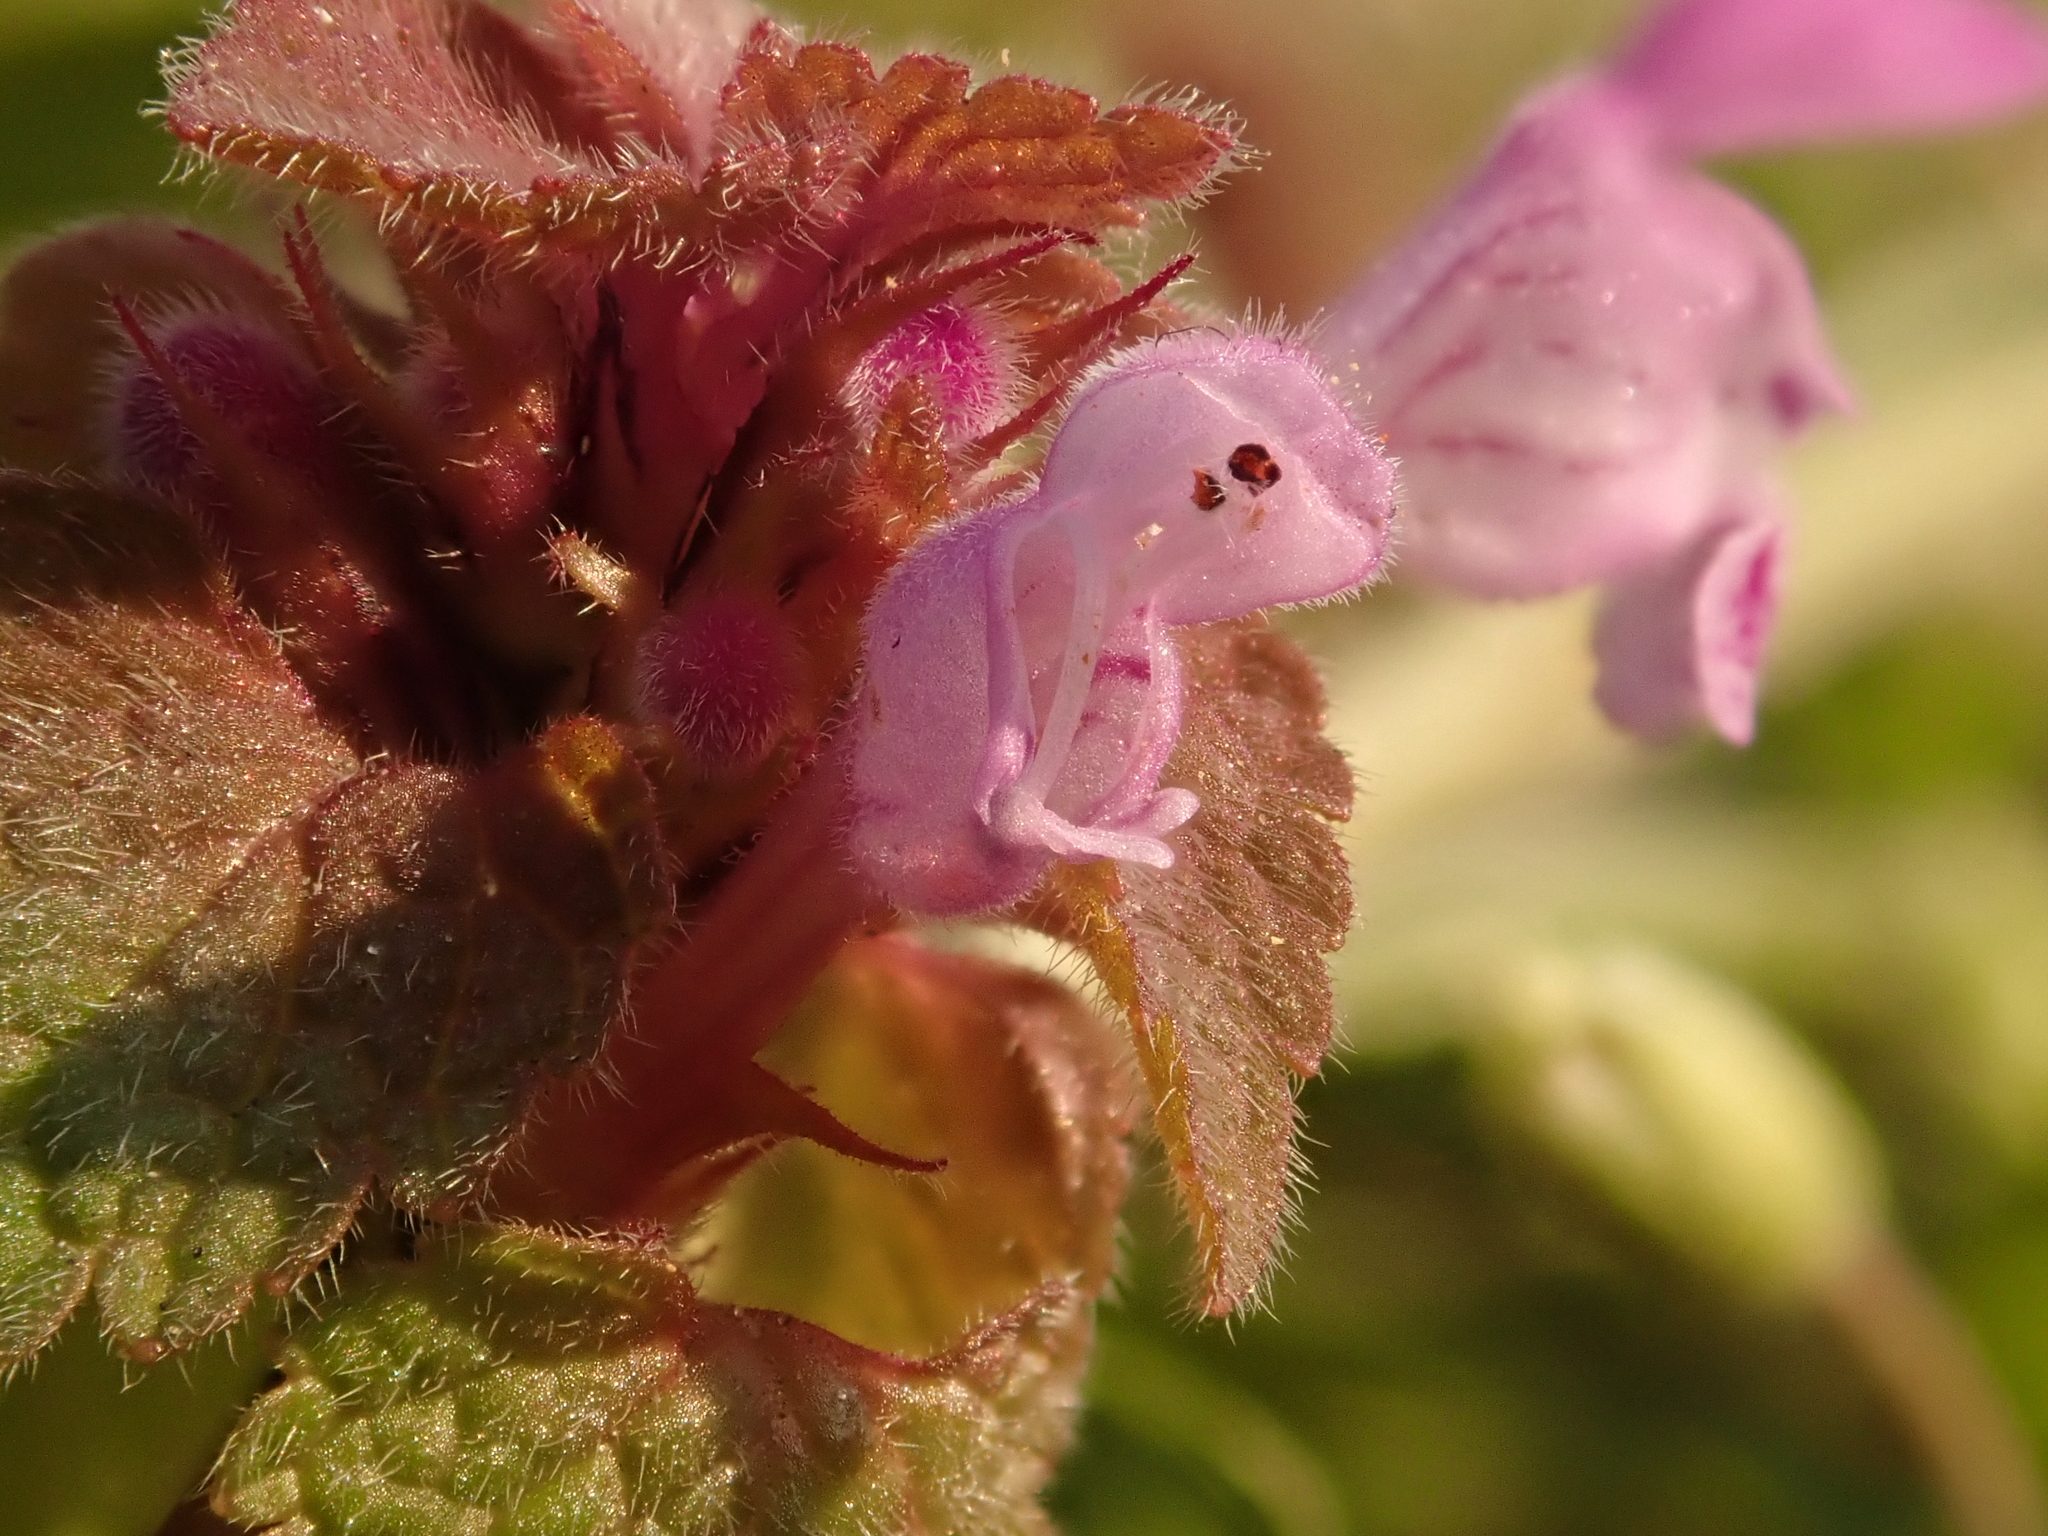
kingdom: Plantae
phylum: Tracheophyta
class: Magnoliopsida
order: Lamiales
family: Lamiaceae
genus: Lamium
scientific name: Lamium purpureum
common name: Red dead-nettle
